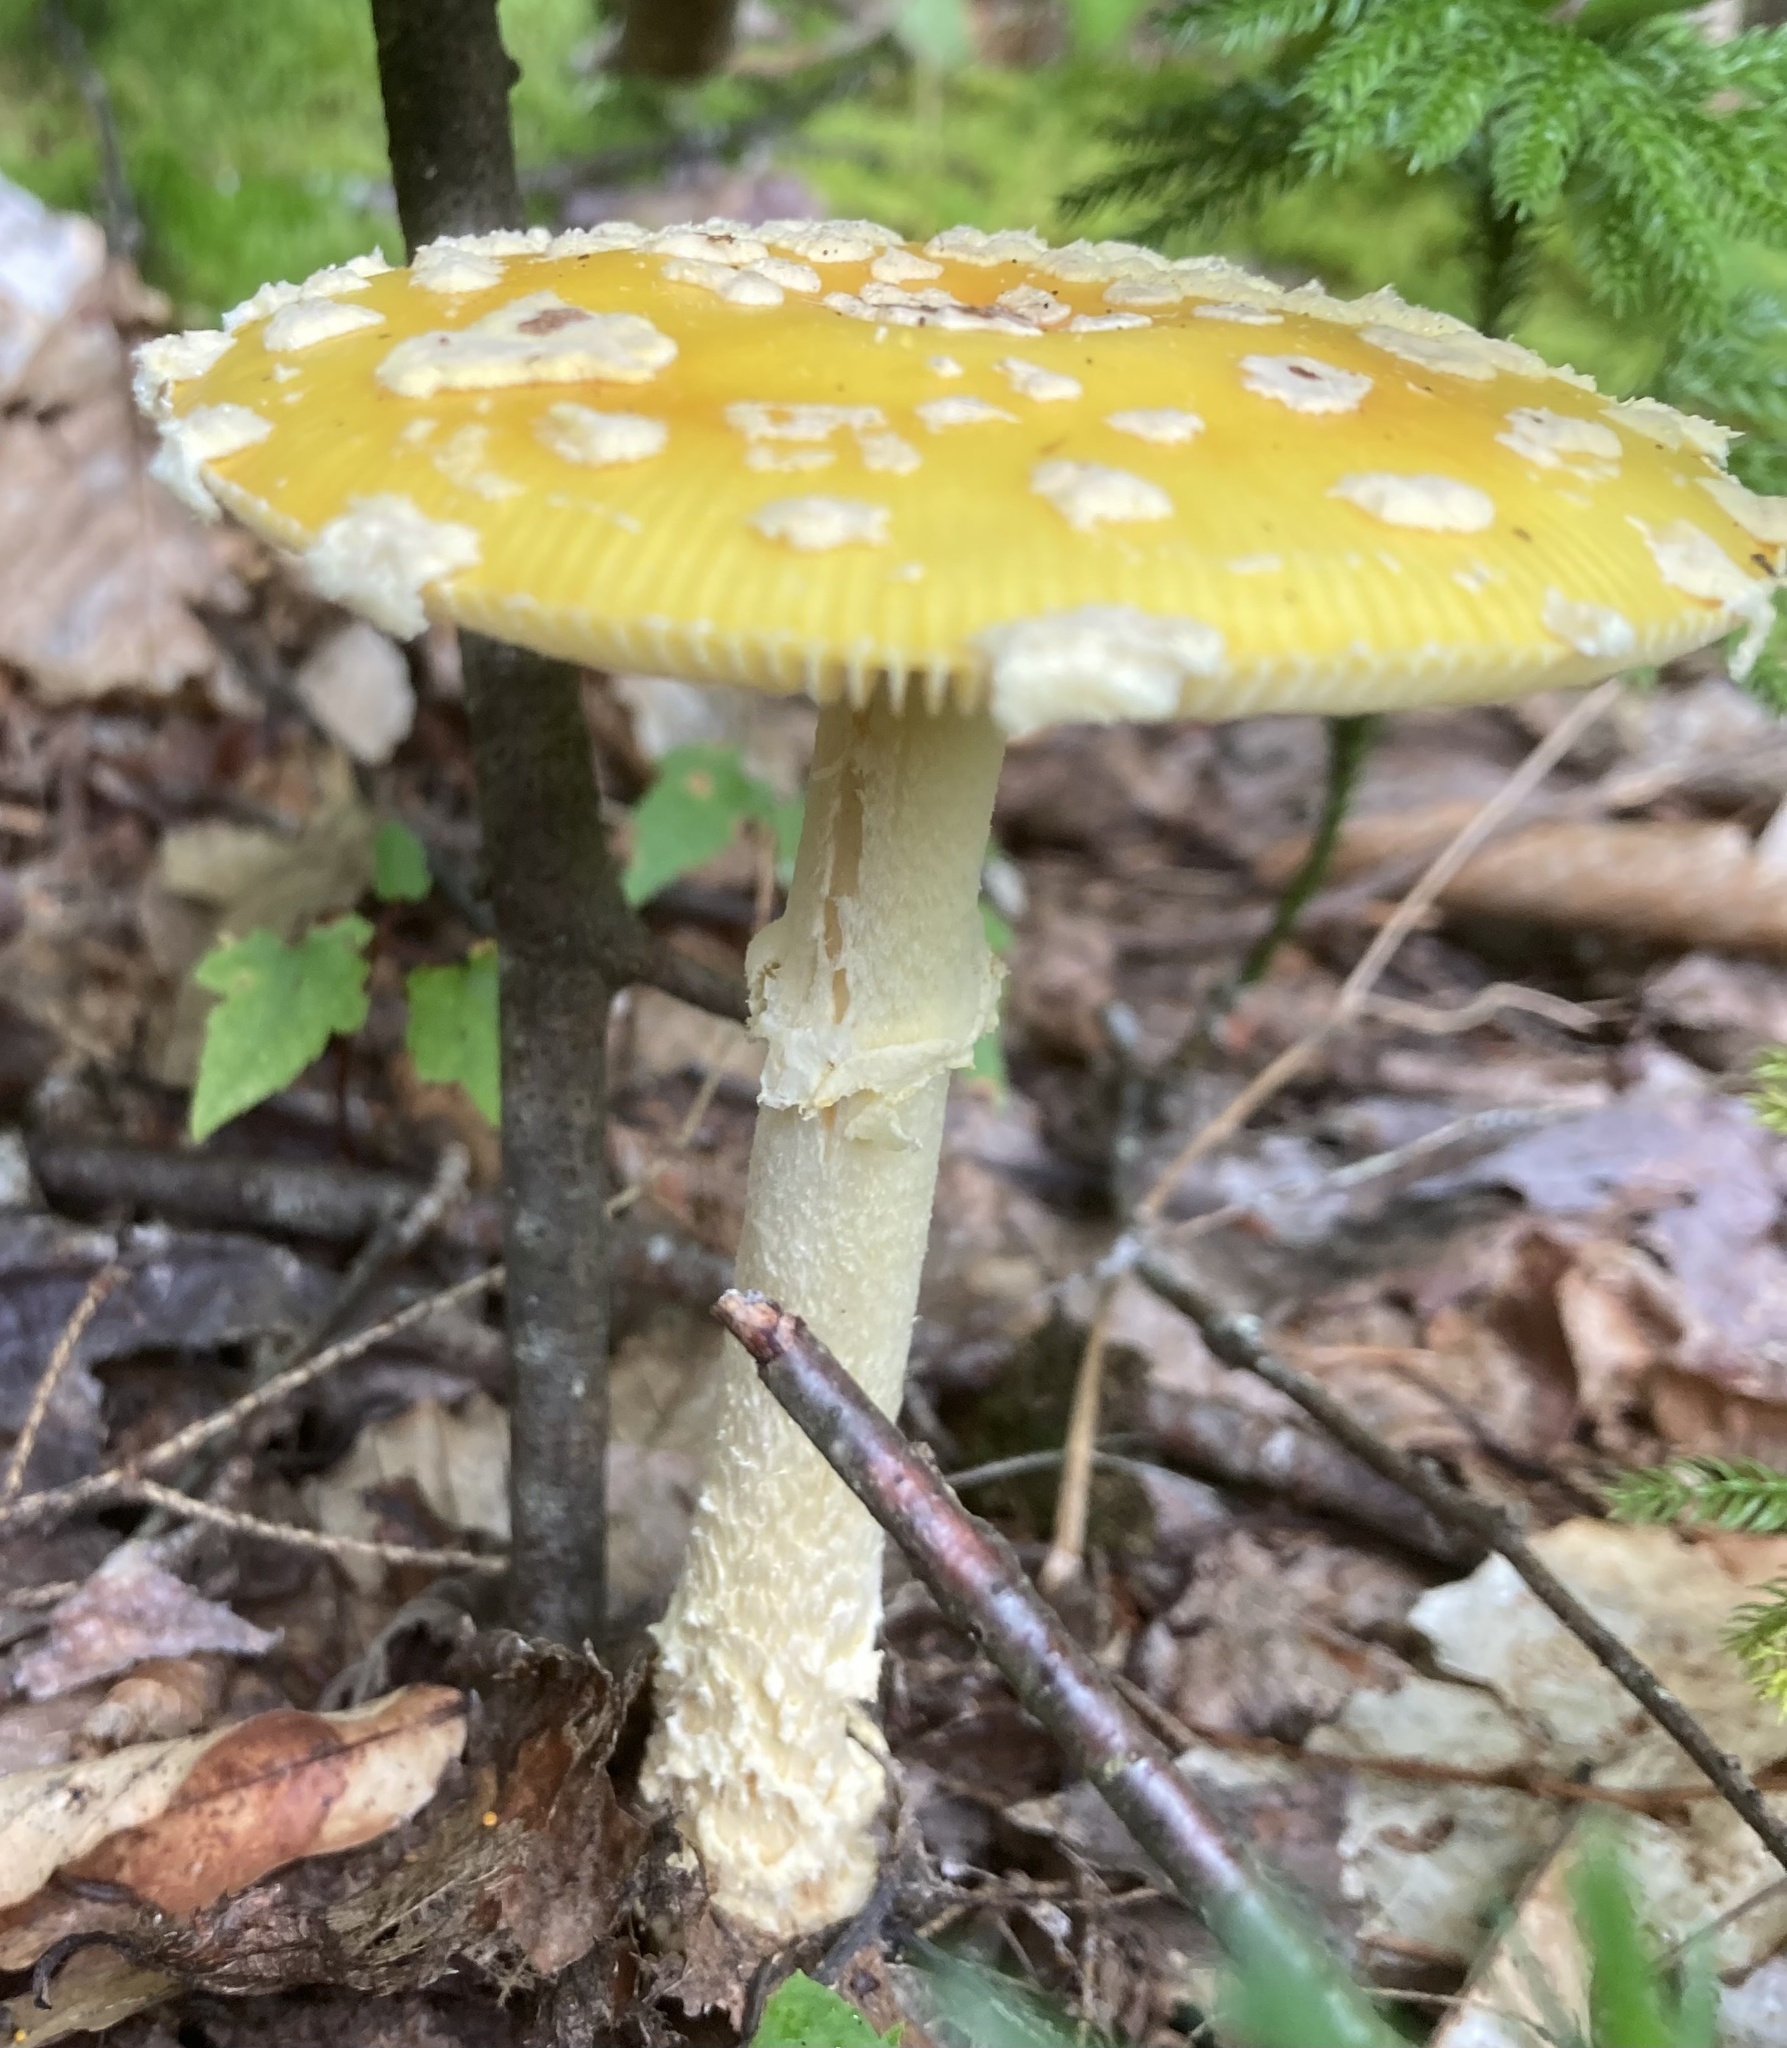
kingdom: Fungi
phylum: Basidiomycota
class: Agaricomycetes
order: Agaricales
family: Amanitaceae
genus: Amanita
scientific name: Amanita muscaria
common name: Fly agaric
